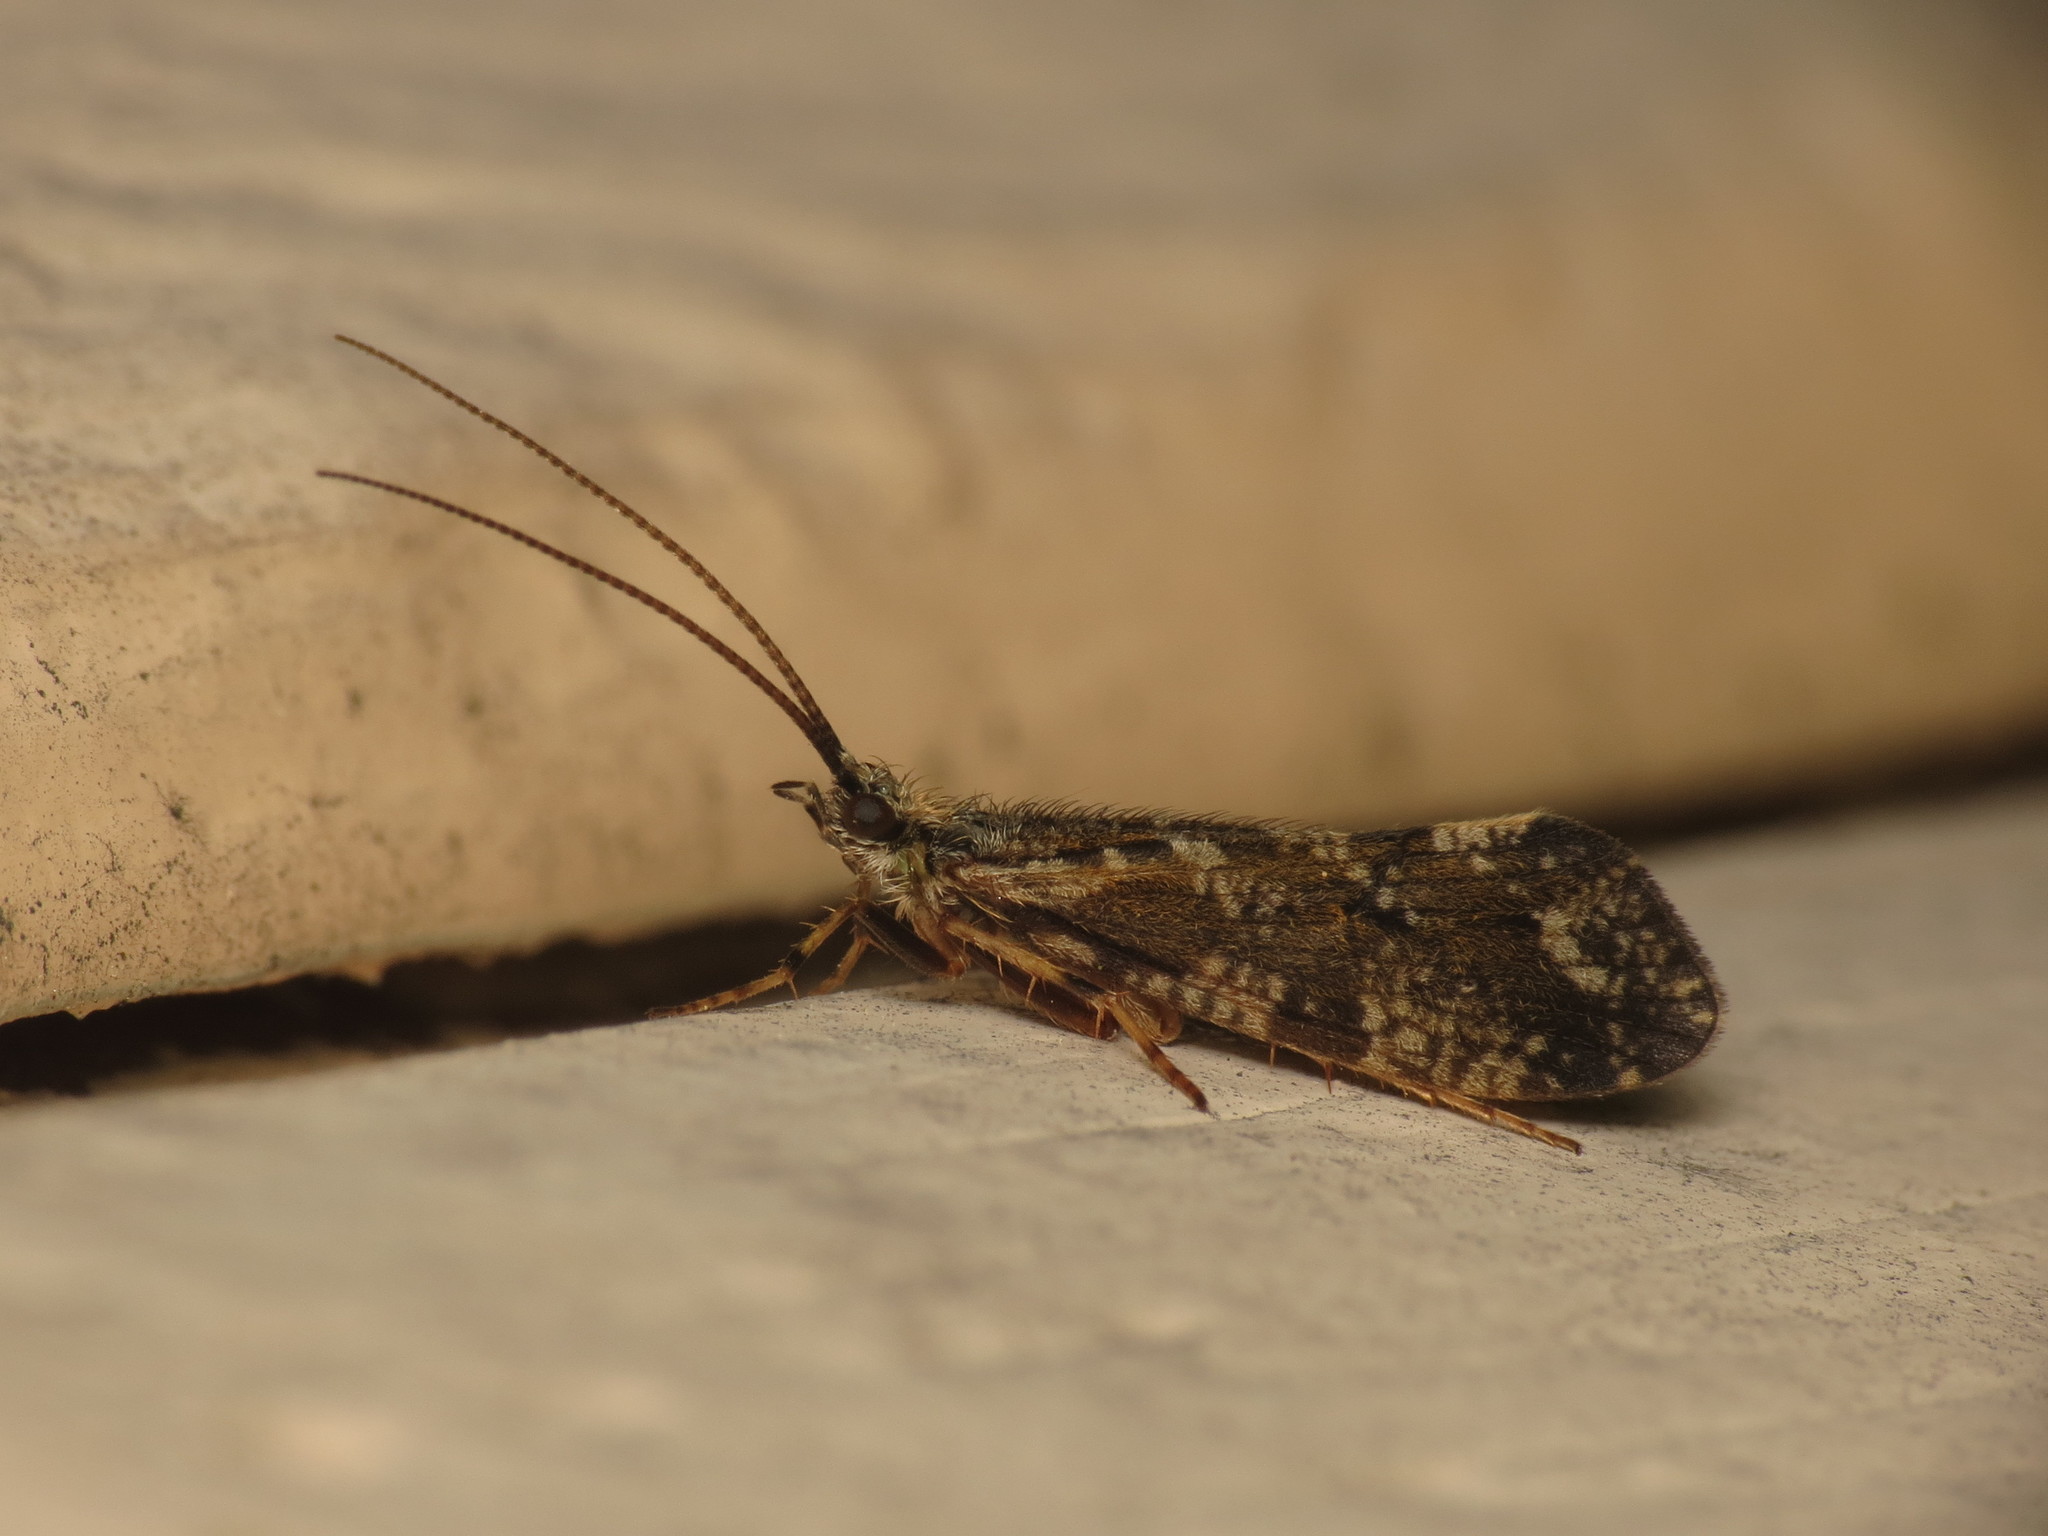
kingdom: Animalia
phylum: Arthropoda
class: Insecta
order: Trichoptera
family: Phryganeidae
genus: Trichostegia
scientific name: Trichostegia minor
